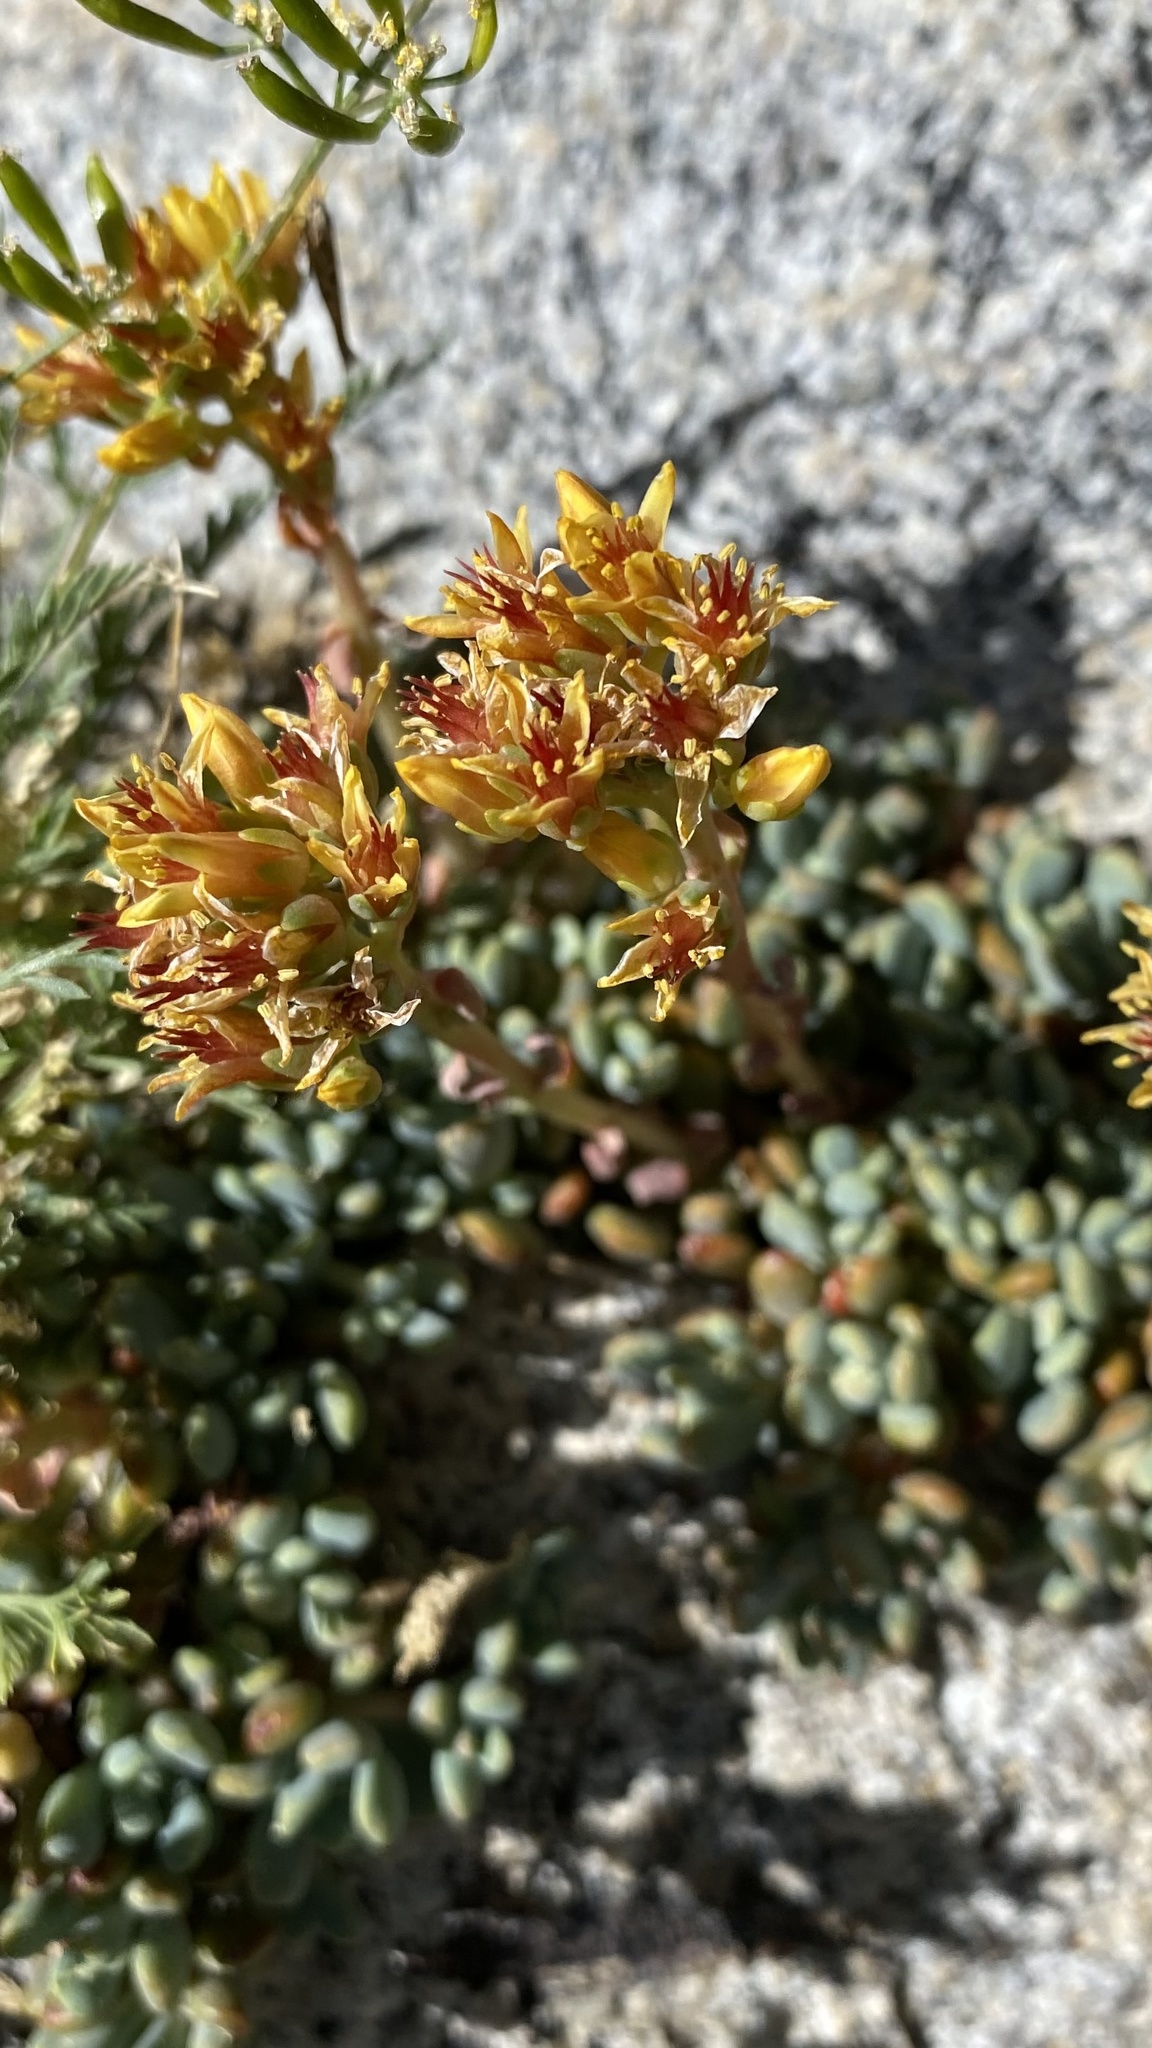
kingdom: Plantae
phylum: Tracheophyta
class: Magnoliopsida
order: Saxifragales
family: Crassulaceae
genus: Sedum
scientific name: Sedum obtusatum
